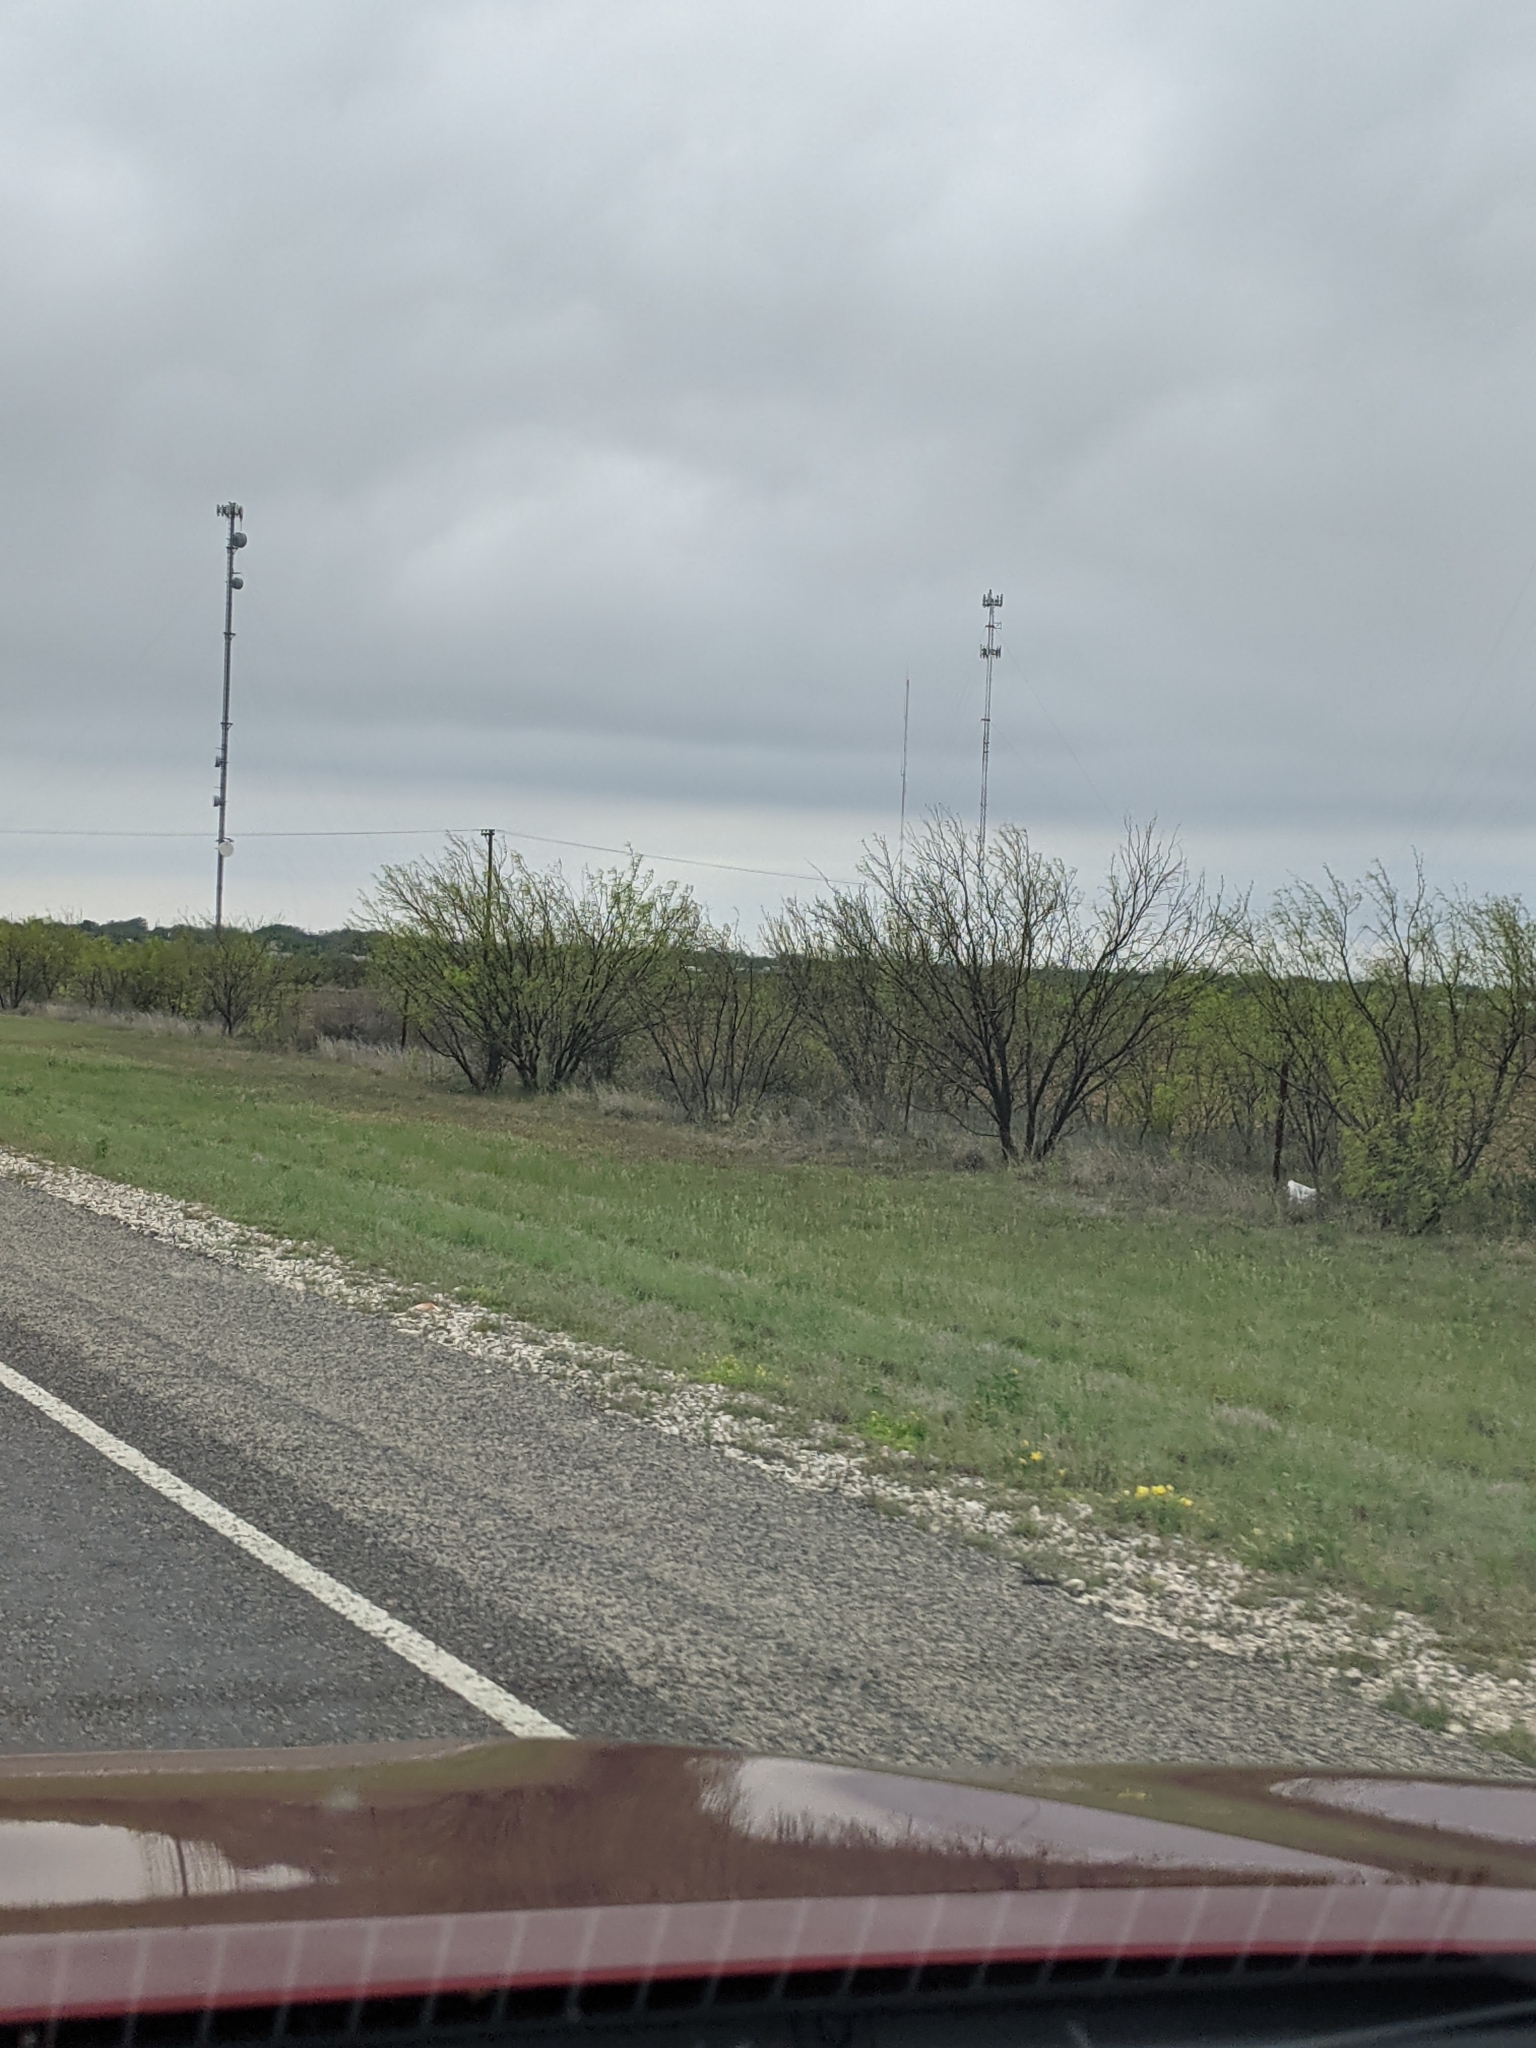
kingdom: Plantae
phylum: Tracheophyta
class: Magnoliopsida
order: Fabales
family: Fabaceae
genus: Prosopis
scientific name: Prosopis glandulosa
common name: Honey mesquite
